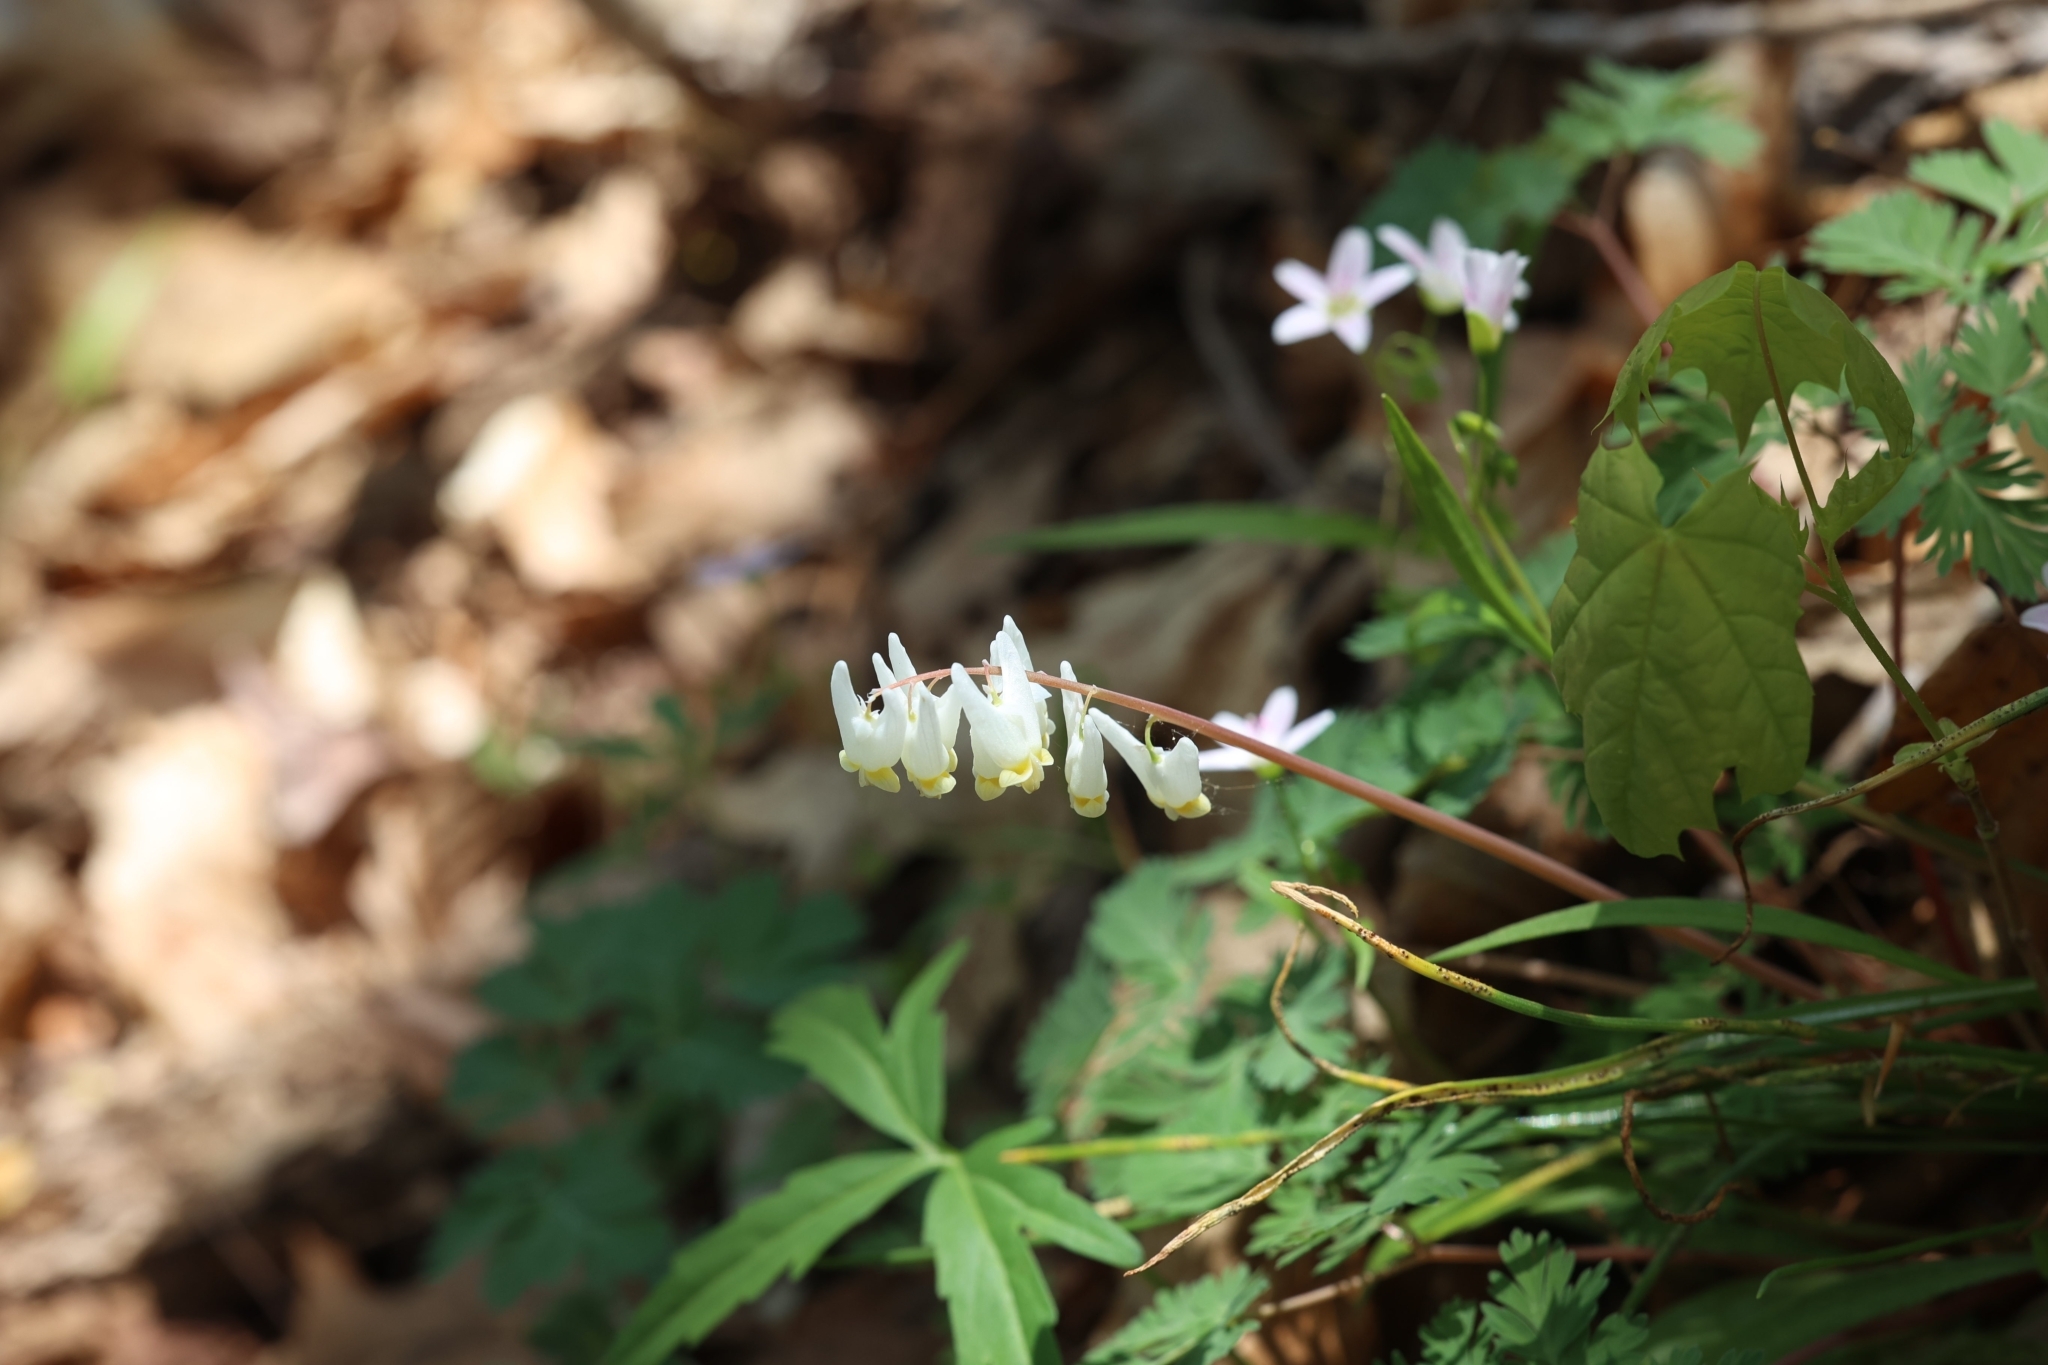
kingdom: Plantae
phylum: Tracheophyta
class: Magnoliopsida
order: Ranunculales
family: Papaveraceae
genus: Dicentra
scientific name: Dicentra cucullaria
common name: Dutchman's breeches
